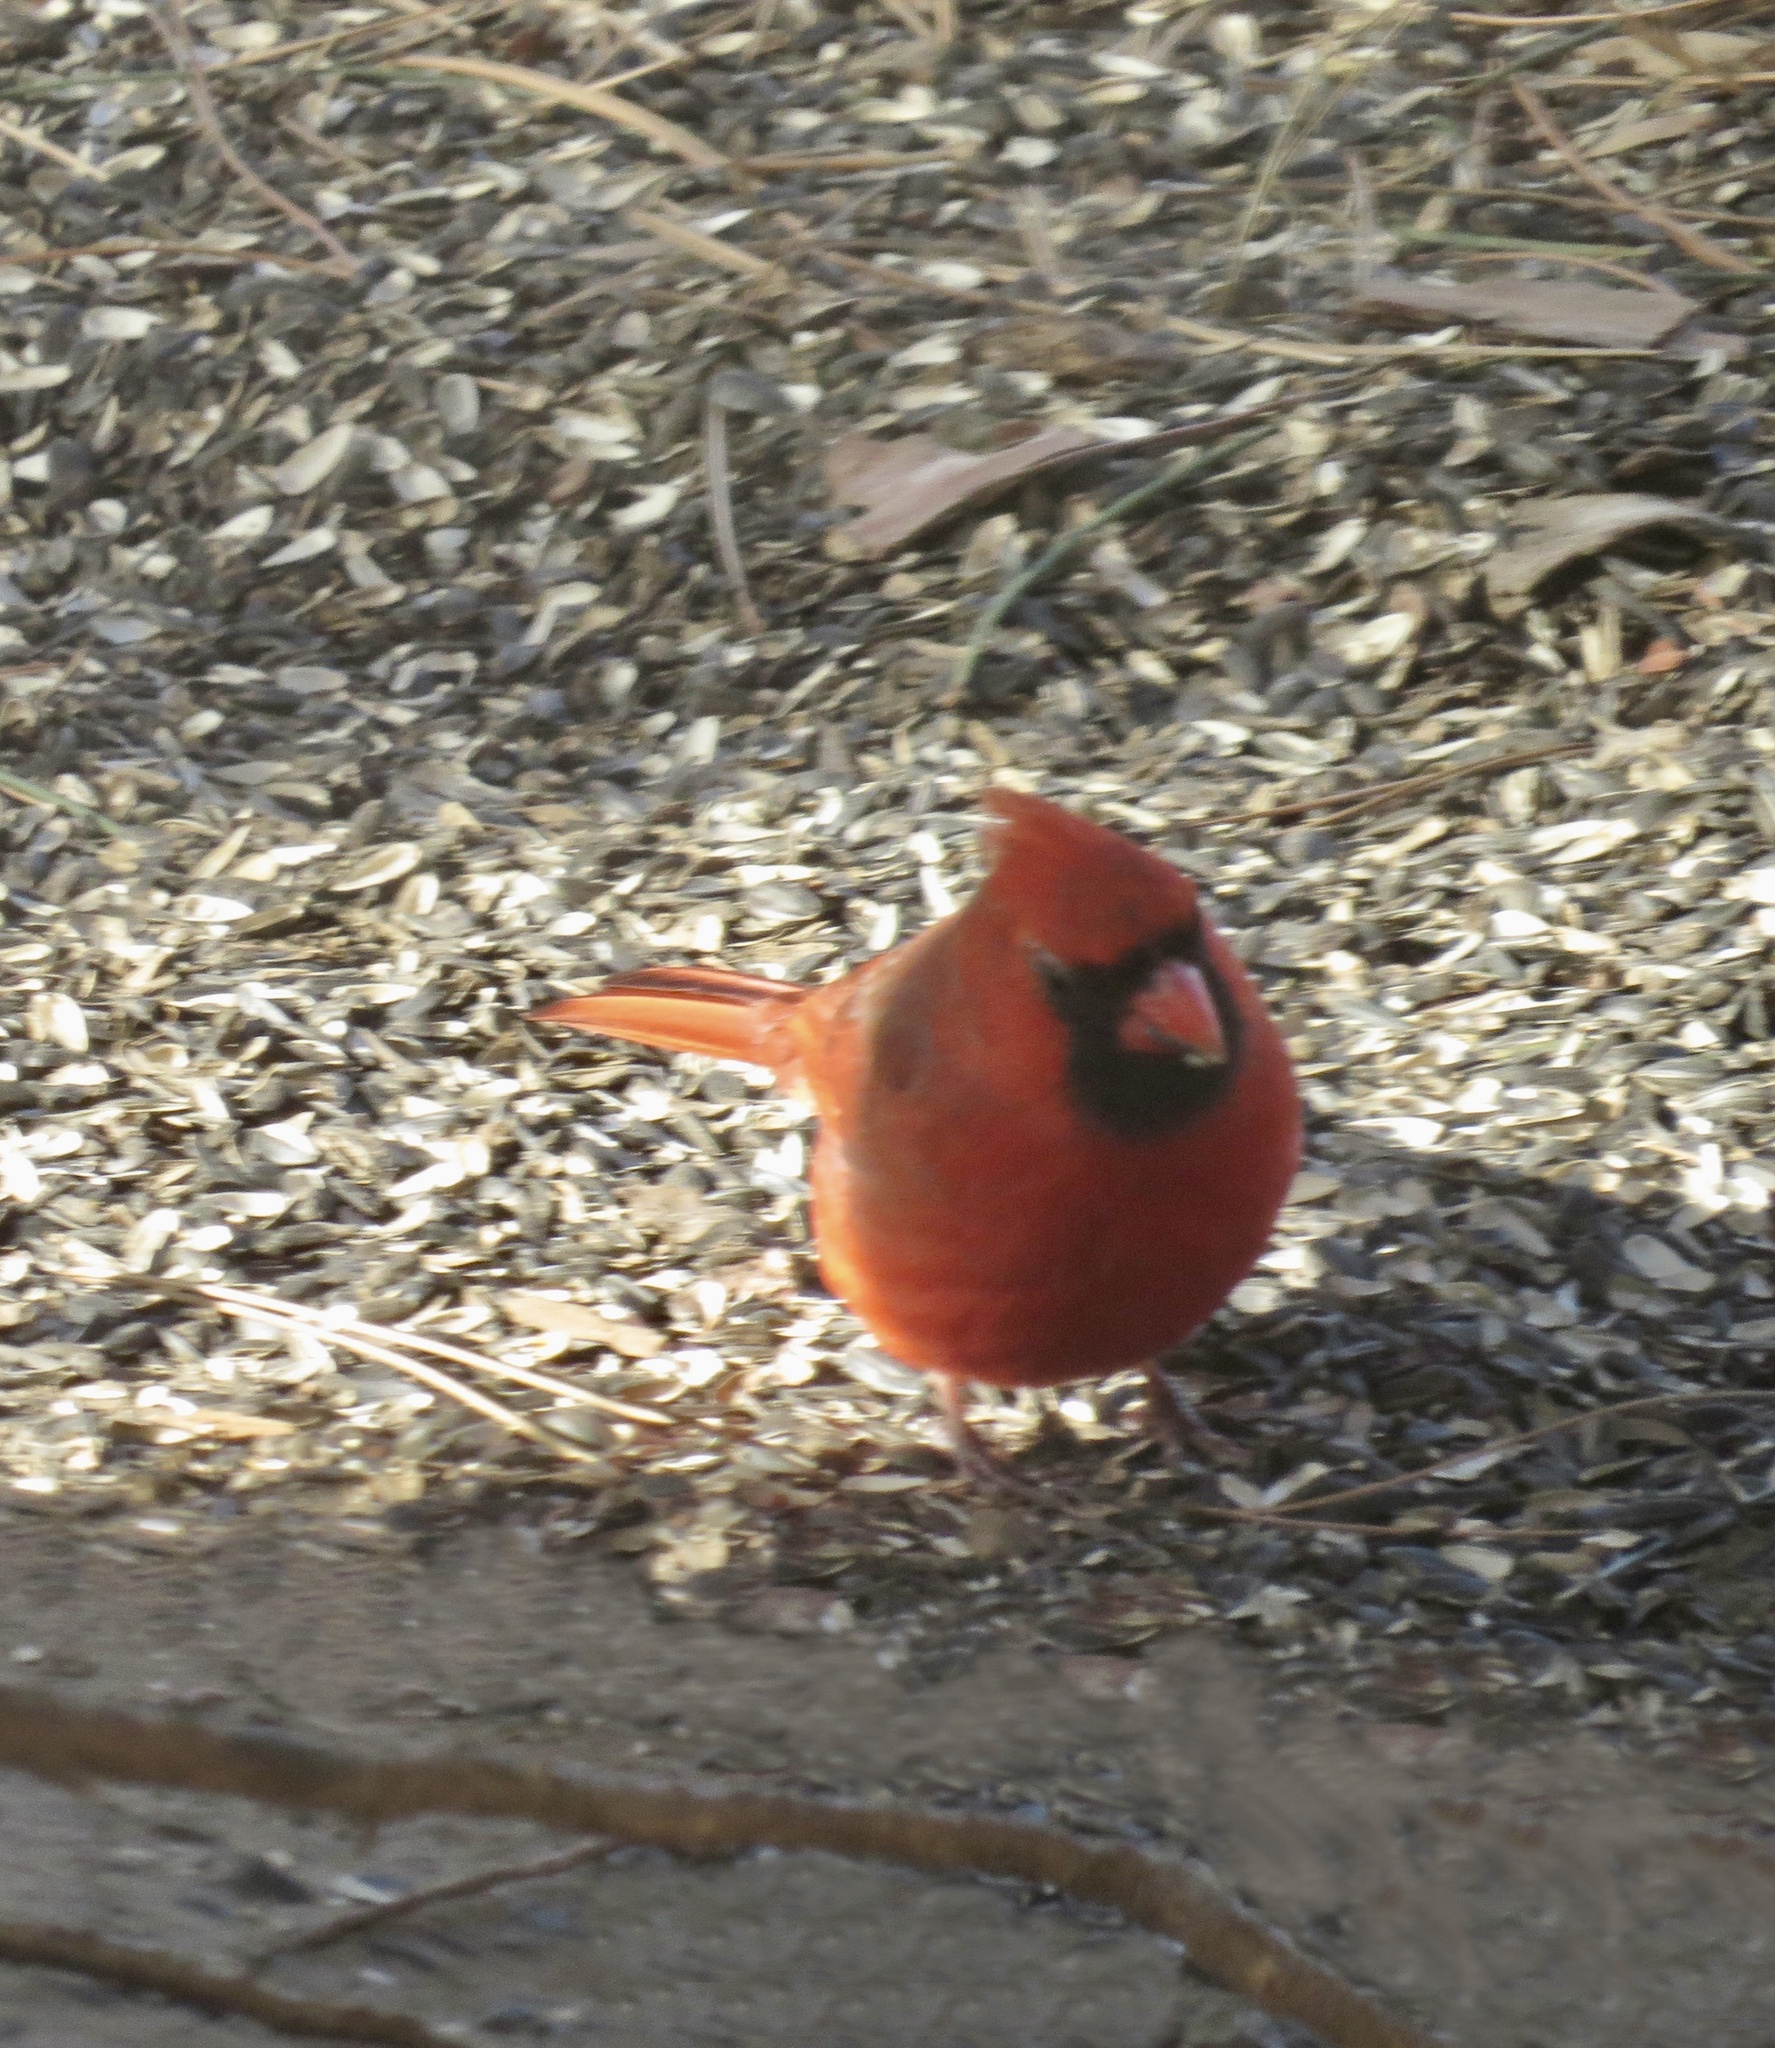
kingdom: Animalia
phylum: Chordata
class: Aves
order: Passeriformes
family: Cardinalidae
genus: Cardinalis
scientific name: Cardinalis cardinalis
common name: Northern cardinal
